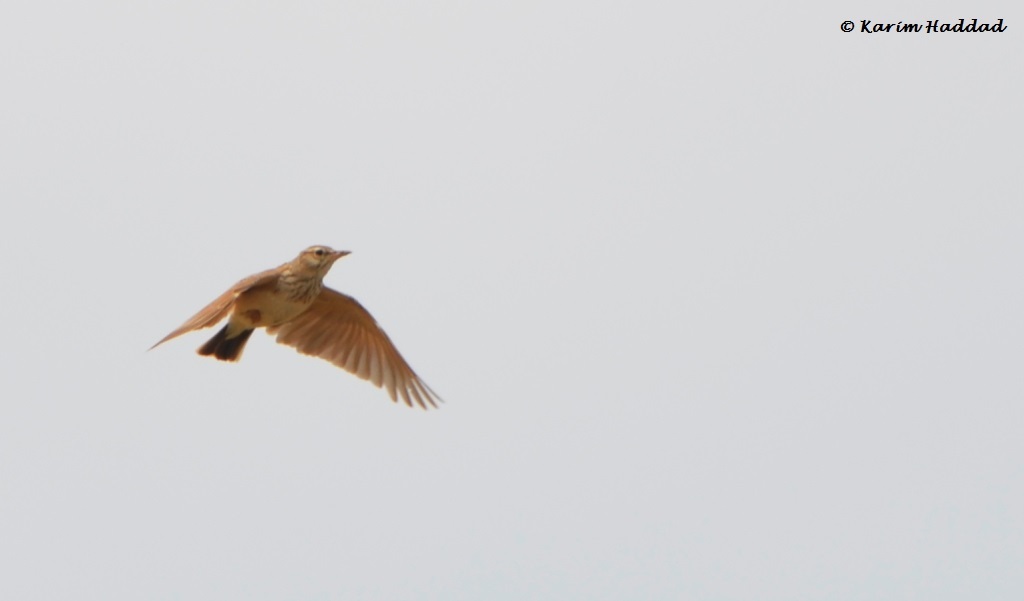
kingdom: Animalia
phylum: Chordata
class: Aves
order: Passeriformes
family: Alaudidae
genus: Alauda
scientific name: Alauda arvensis
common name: Eurasian skylark
